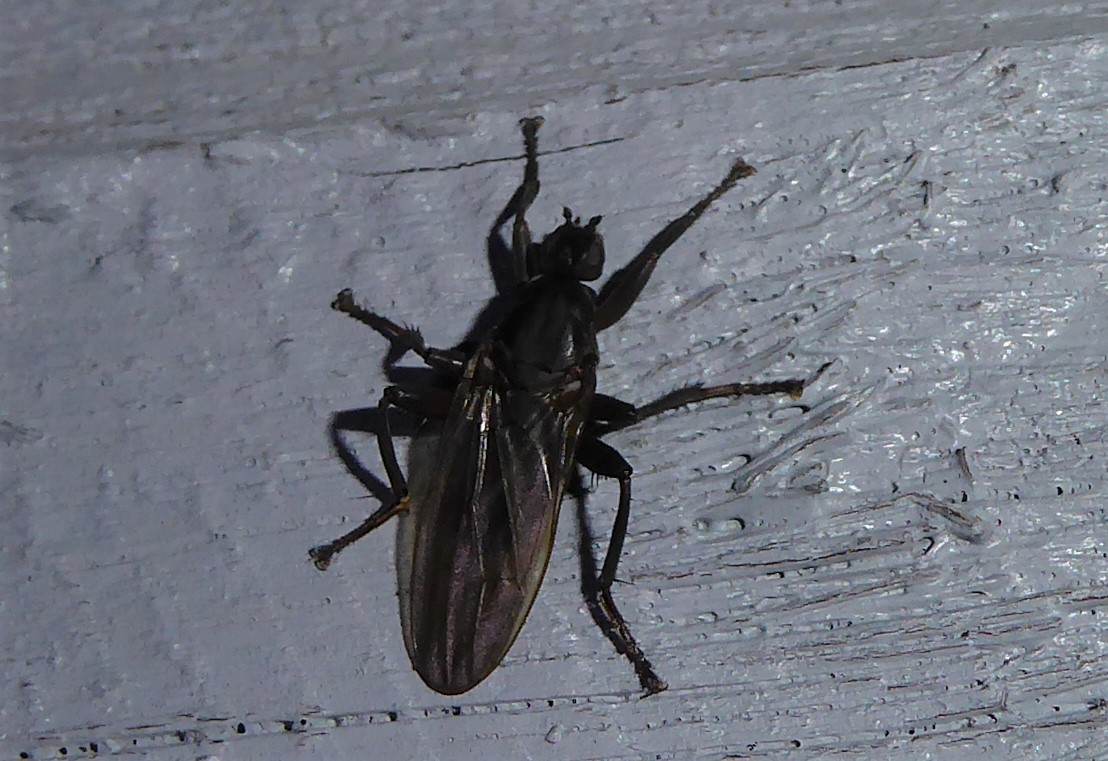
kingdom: Animalia
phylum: Arthropoda
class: Insecta
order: Diptera
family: Coelopidae
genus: Baeopterus
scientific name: Baeopterus philpotti
